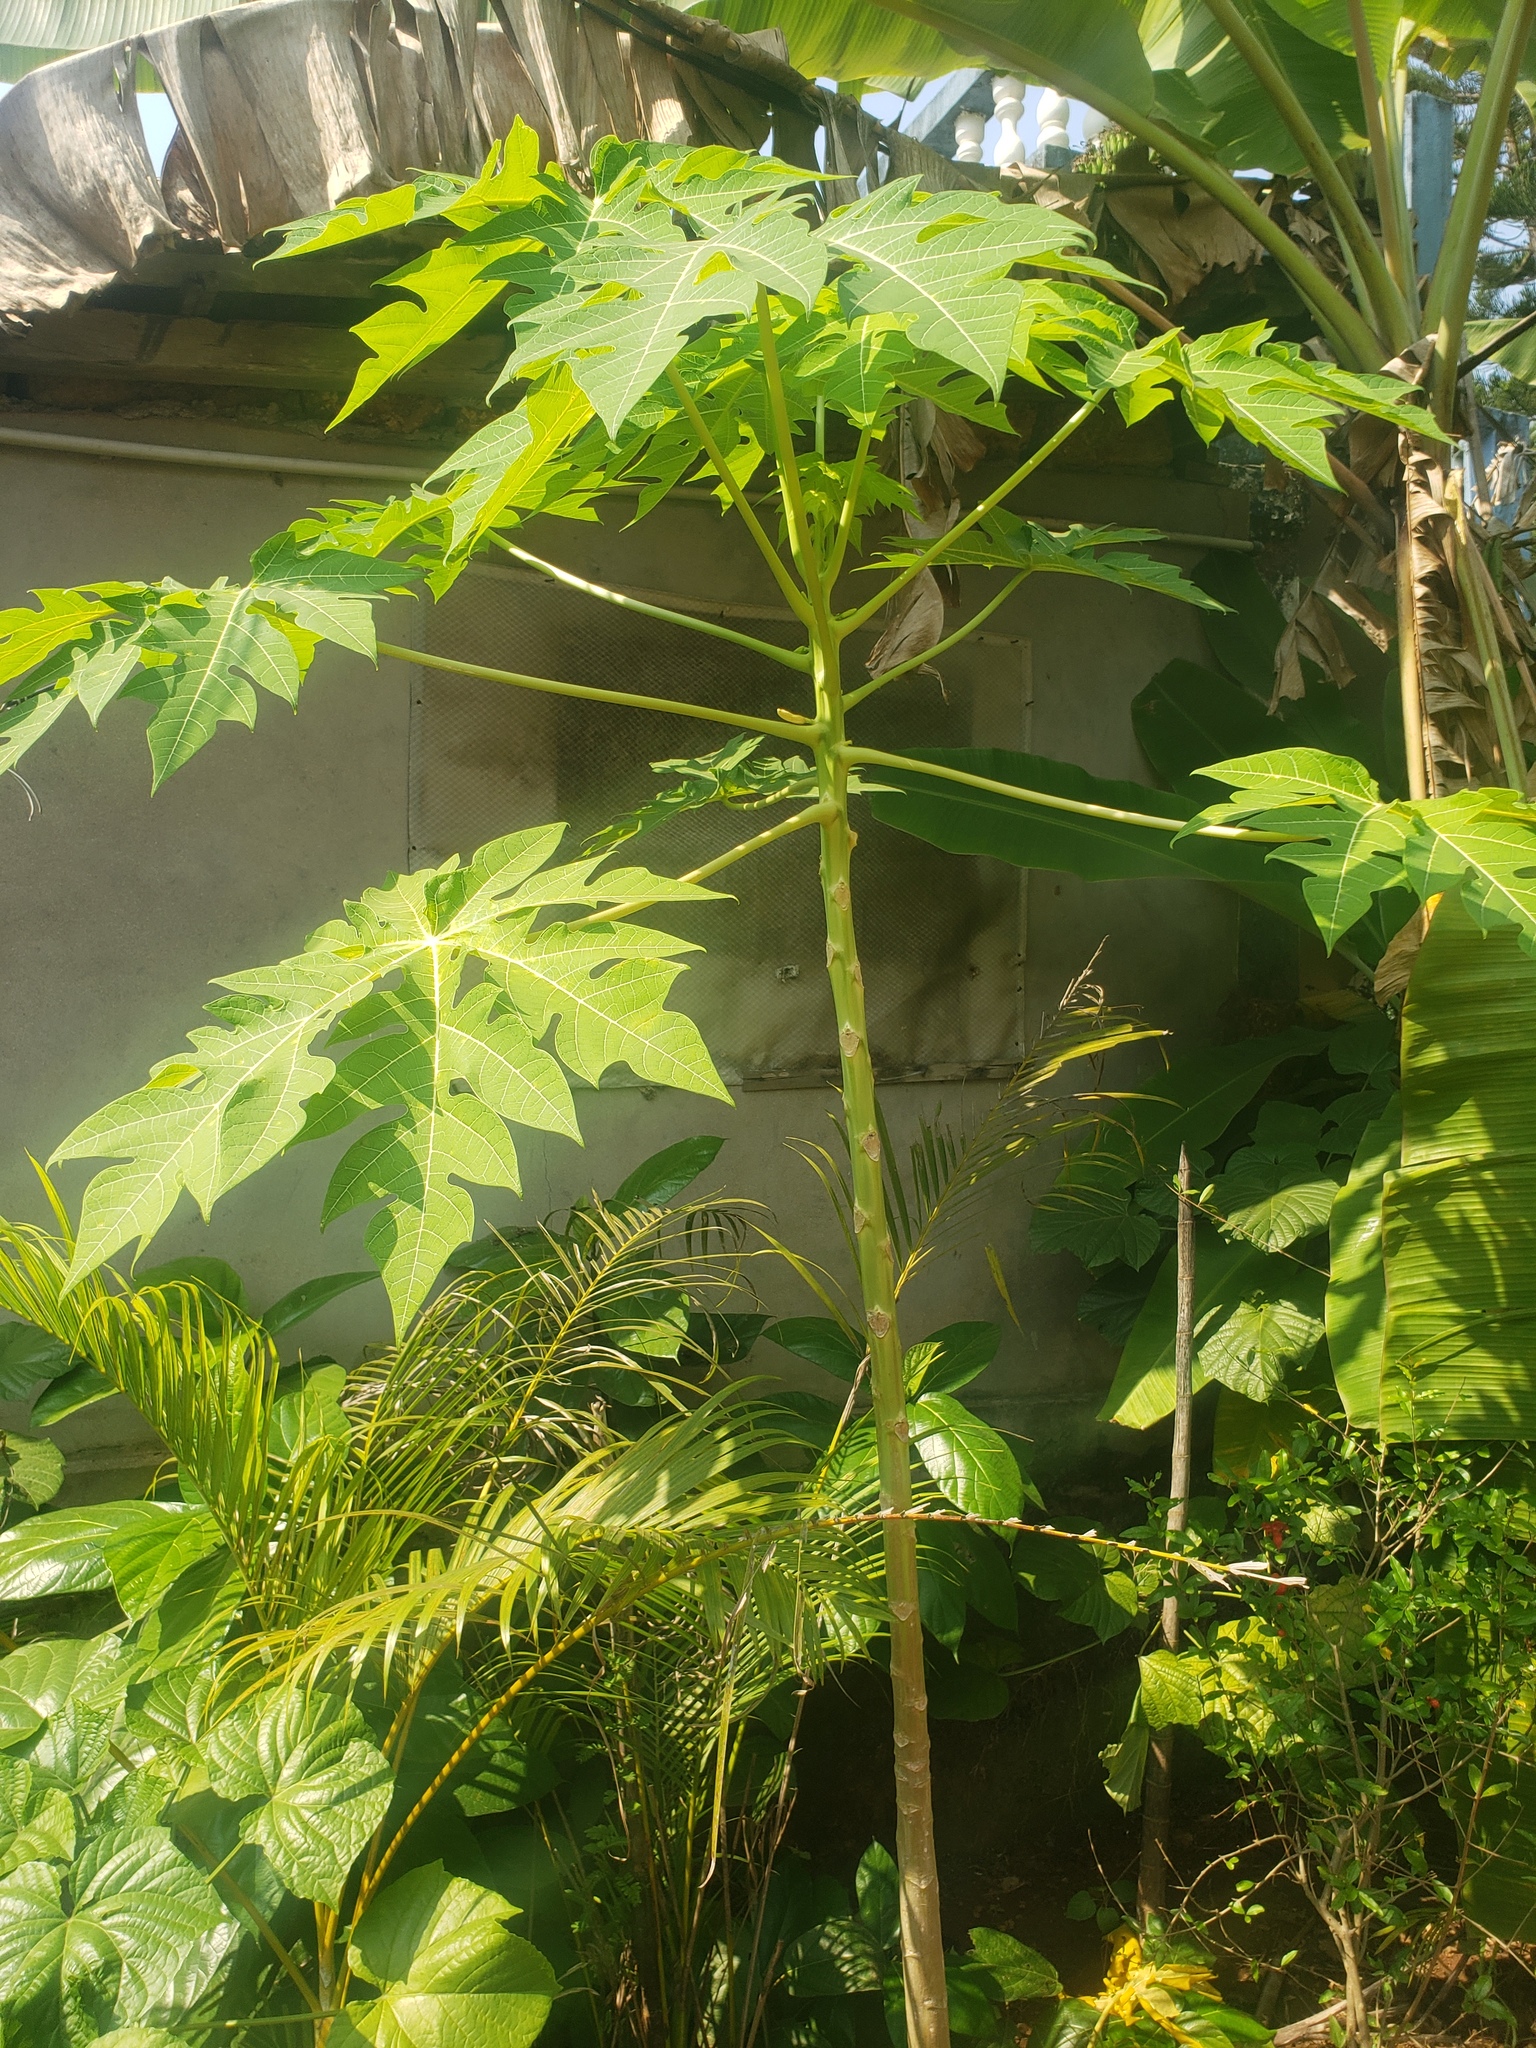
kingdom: Plantae
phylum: Tracheophyta
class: Magnoliopsida
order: Brassicales
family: Caricaceae
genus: Carica
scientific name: Carica papaya
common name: Papaya
